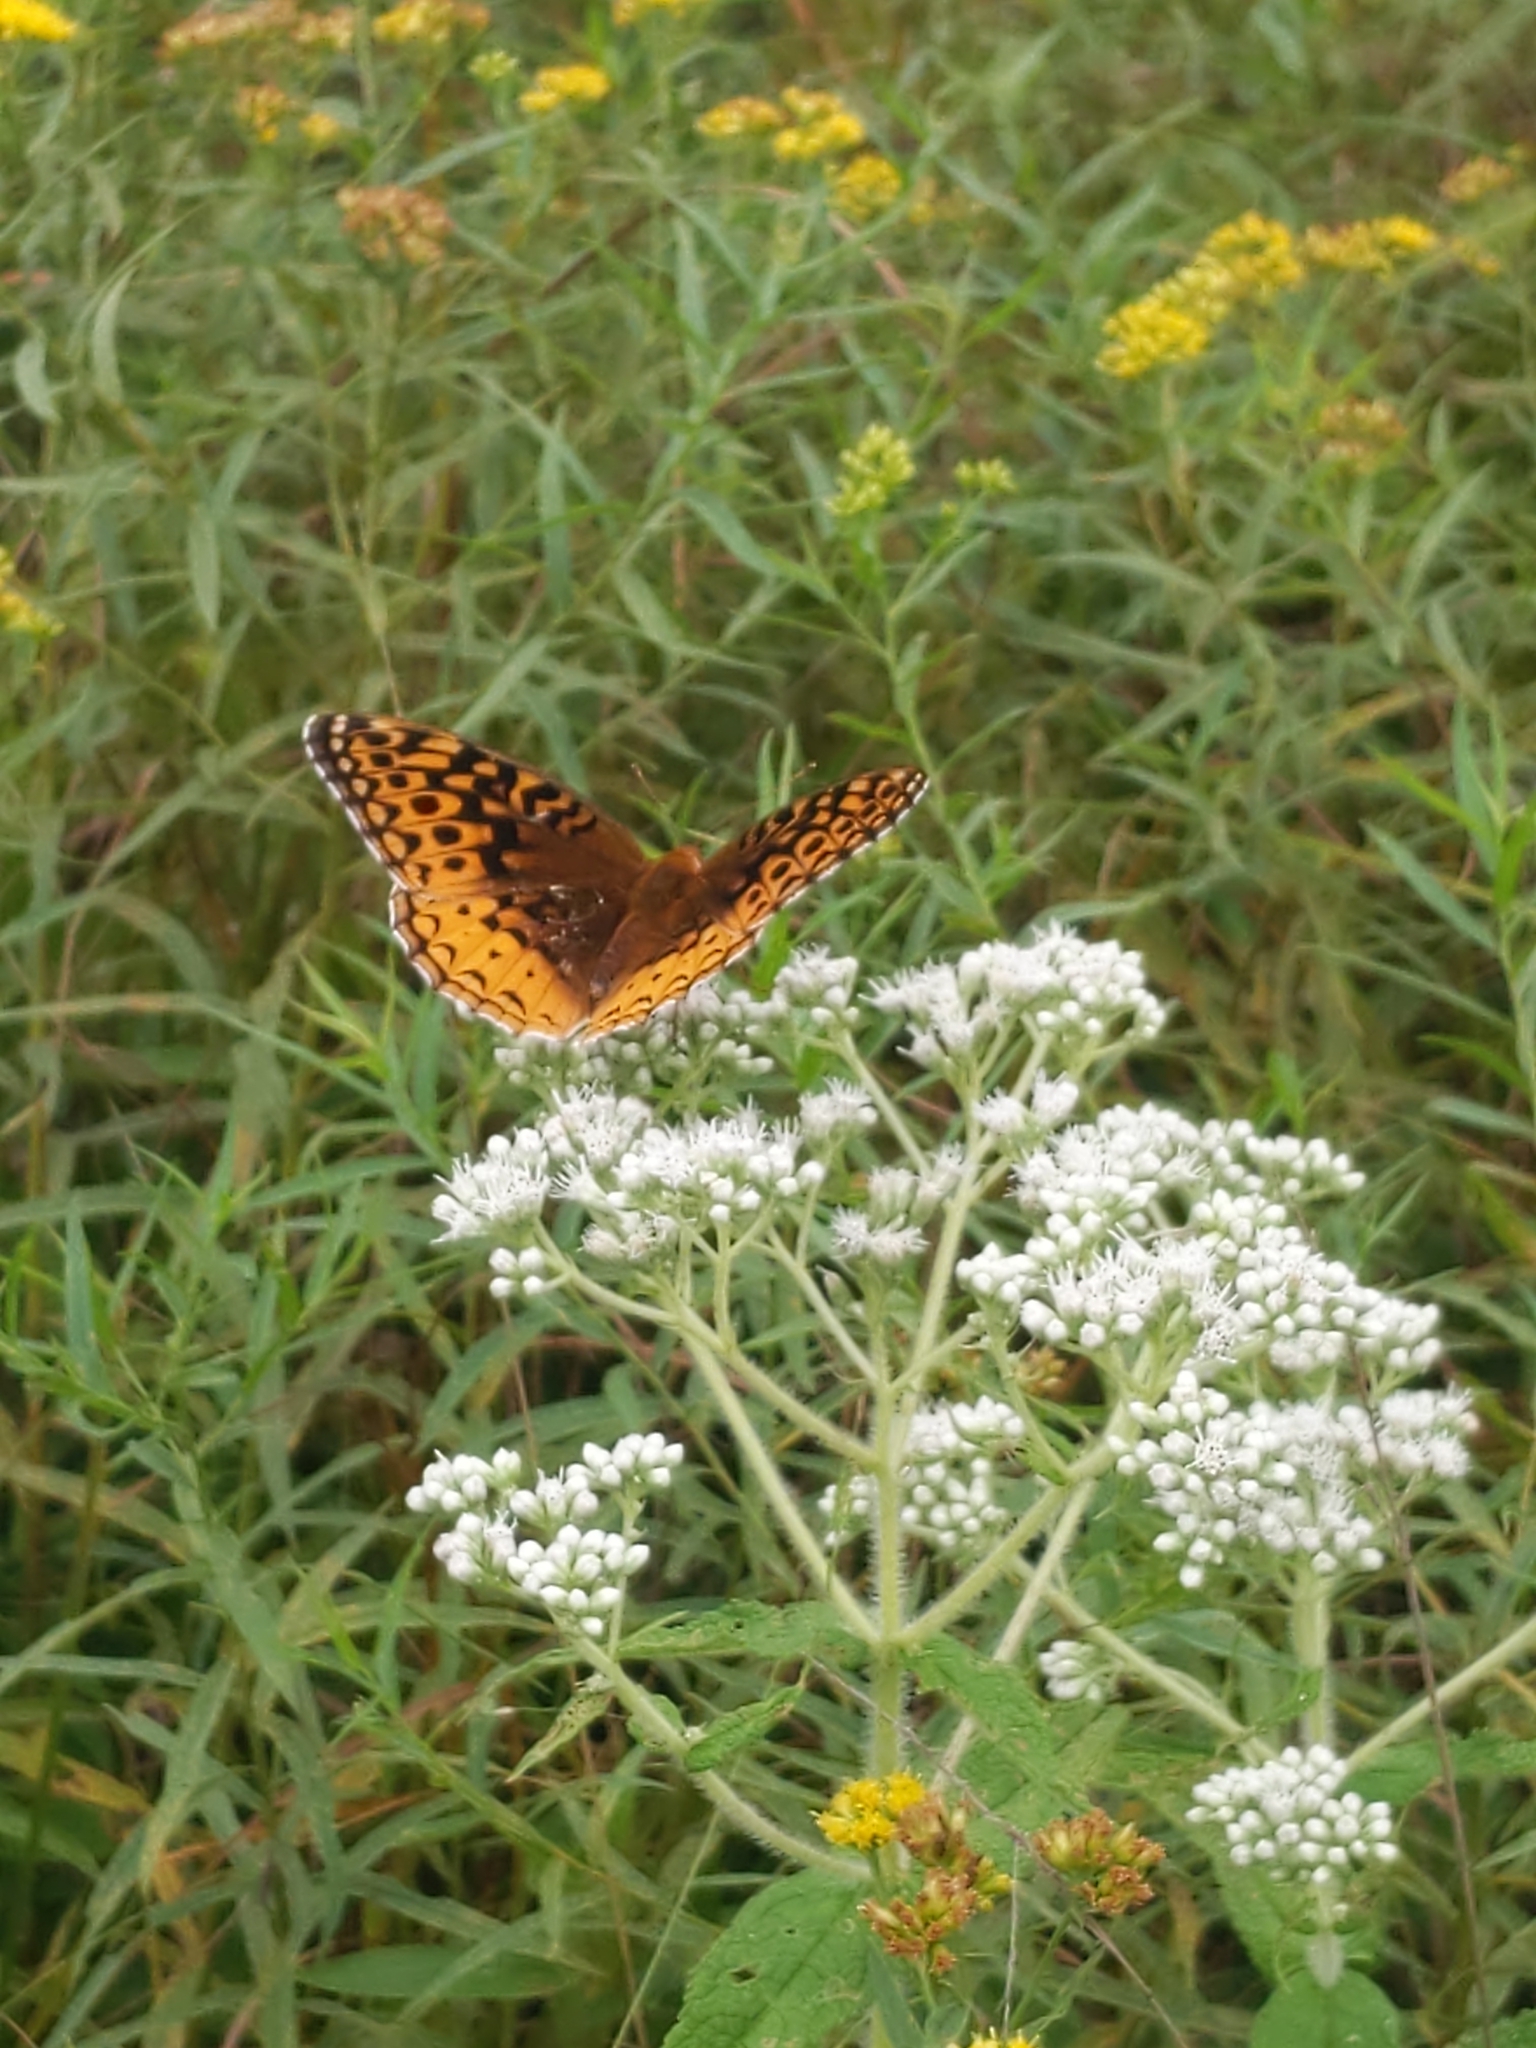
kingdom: Animalia
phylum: Arthropoda
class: Insecta
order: Lepidoptera
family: Nymphalidae
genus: Speyeria
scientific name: Speyeria cybele
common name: Great spangled fritillary
